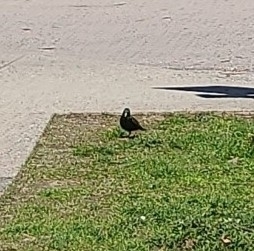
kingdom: Animalia
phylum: Chordata
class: Aves
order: Passeriformes
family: Sturnidae
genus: Sturnus
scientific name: Sturnus vulgaris
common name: Common starling
